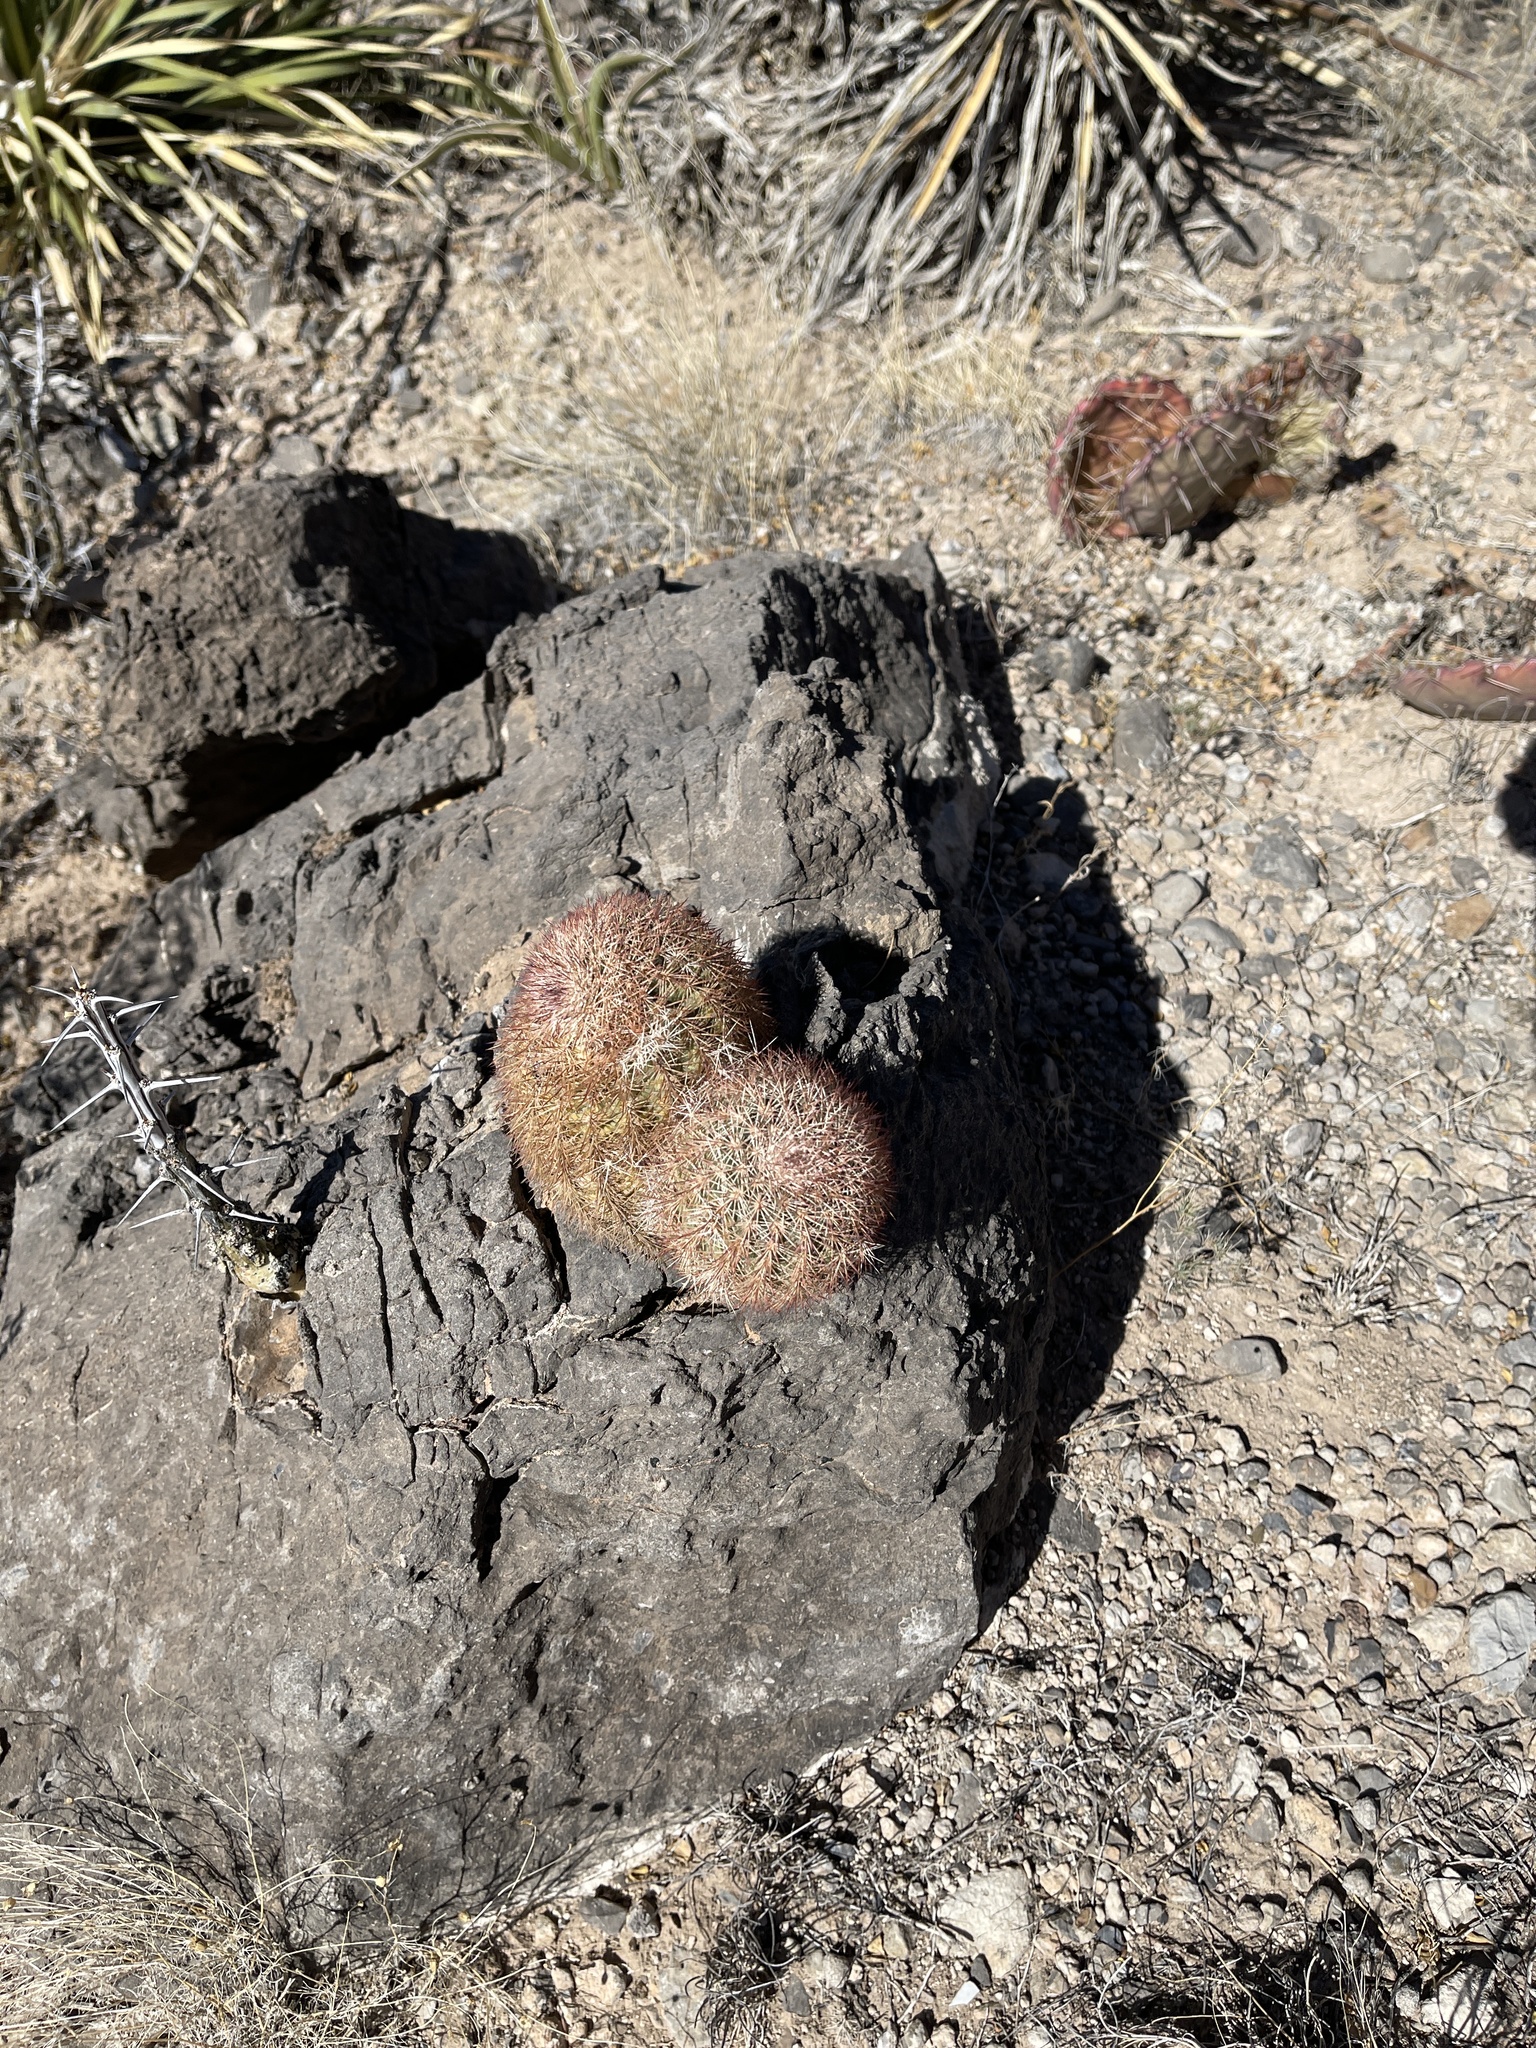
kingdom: Plantae
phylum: Tracheophyta
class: Magnoliopsida
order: Caryophyllales
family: Cactaceae
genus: Echinocereus
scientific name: Echinocereus dasyacanthus
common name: Spiny hedgehog cactus
